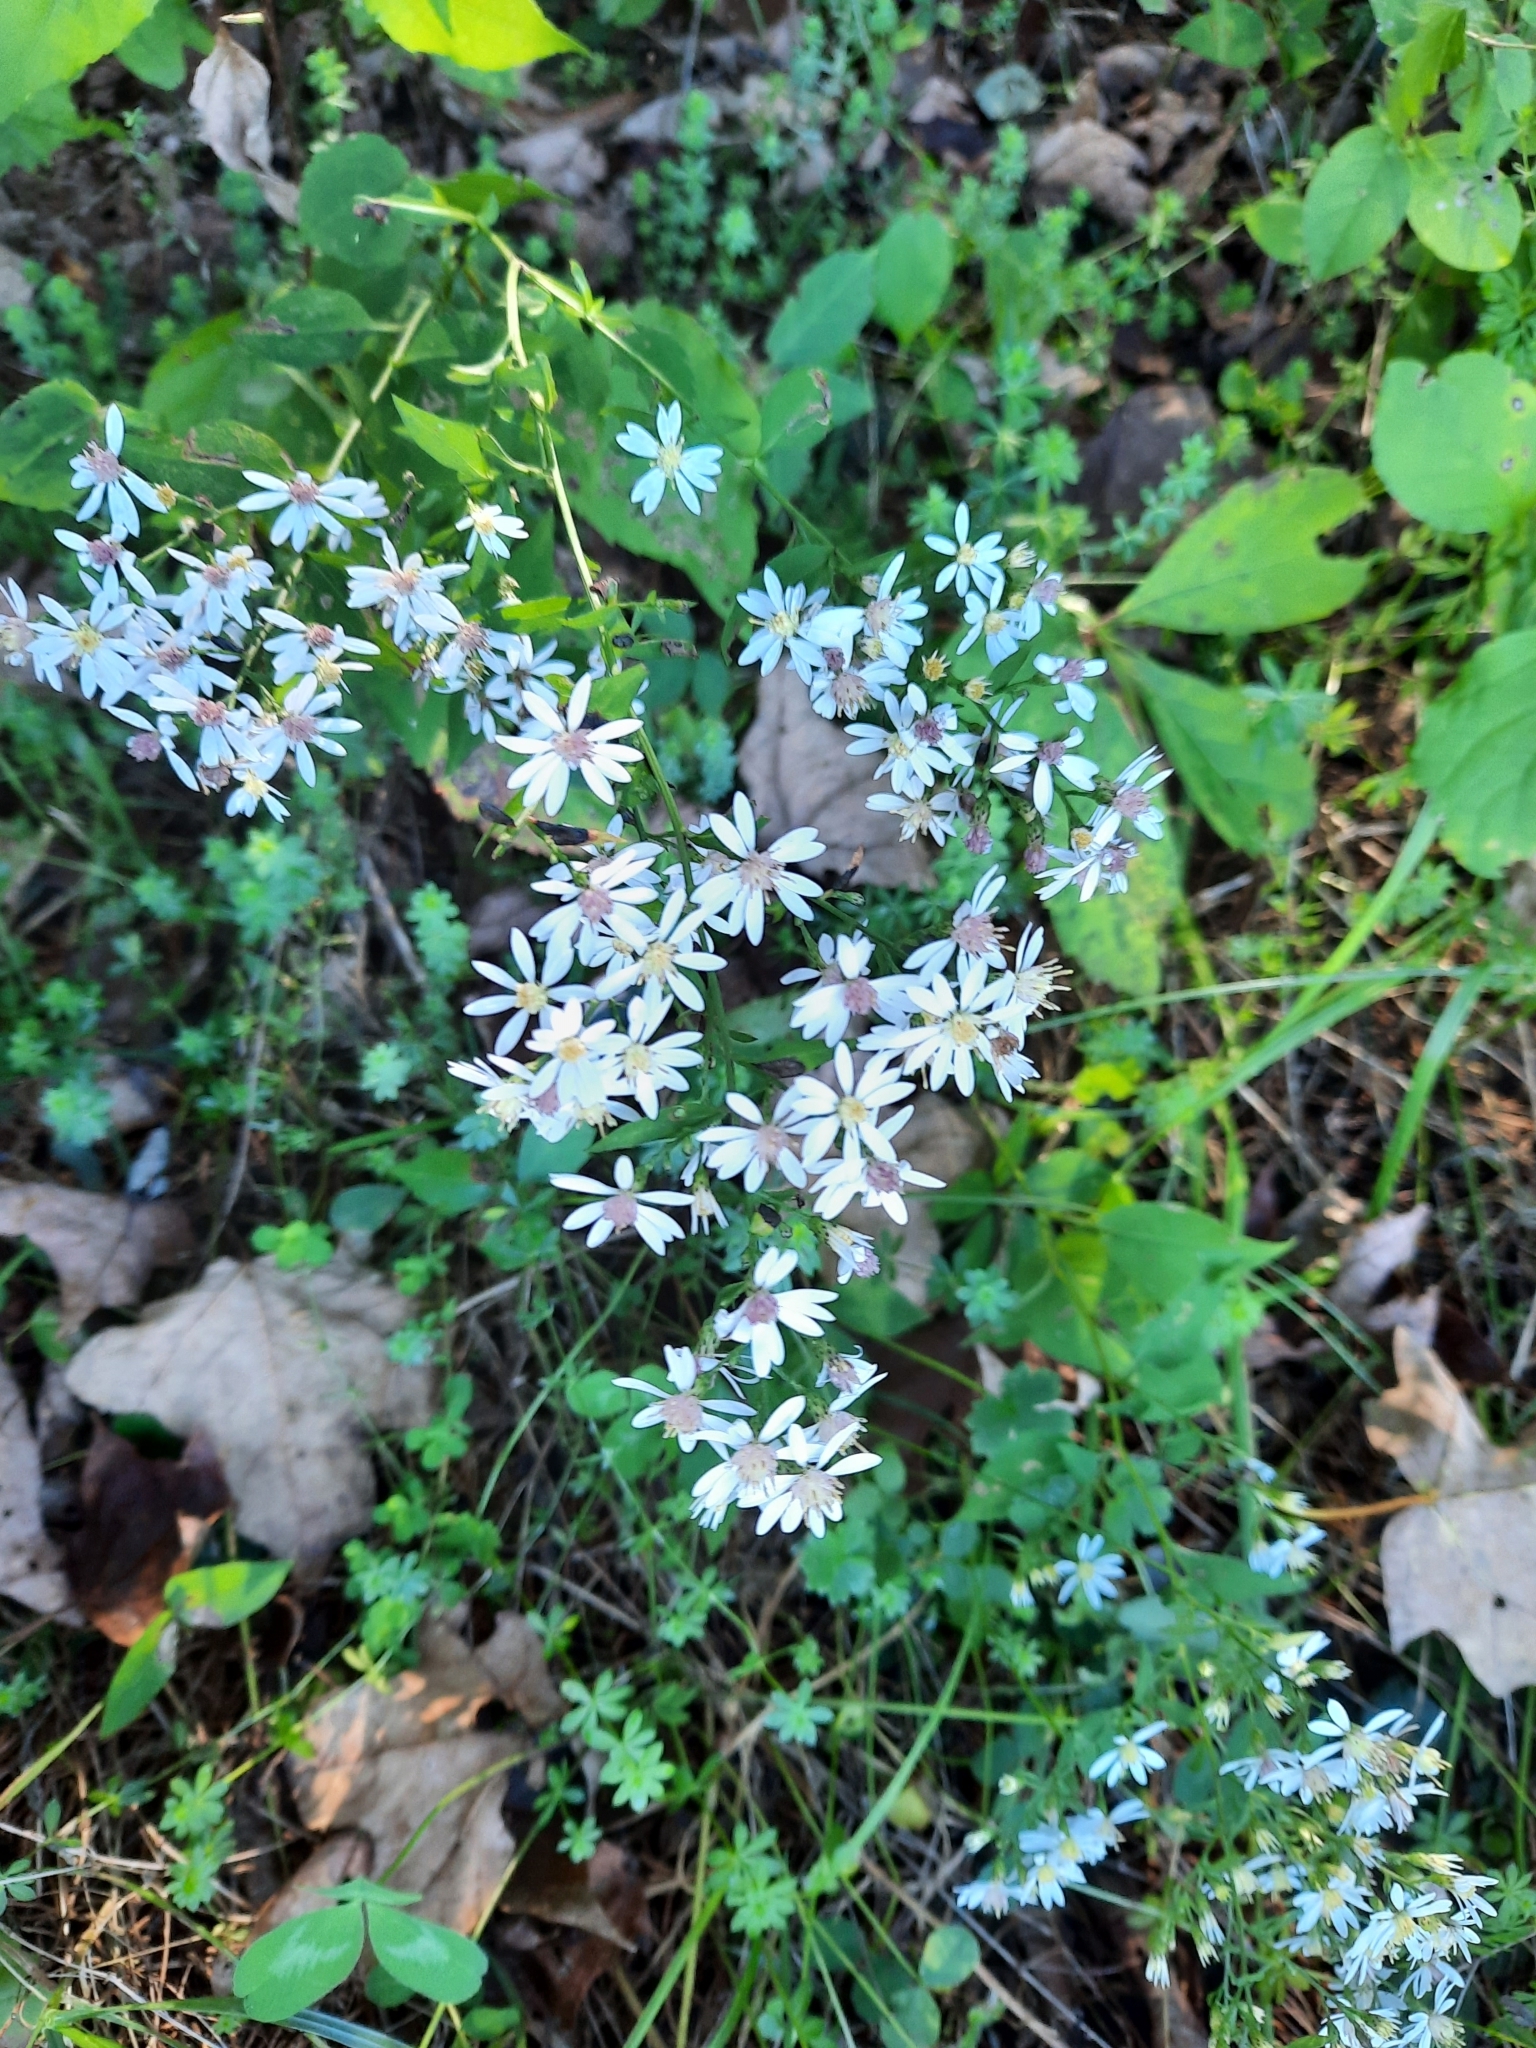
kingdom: Plantae
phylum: Tracheophyta
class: Magnoliopsida
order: Asterales
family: Asteraceae
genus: Symphyotrichum
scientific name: Symphyotrichum cordifolium
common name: Beeweed
